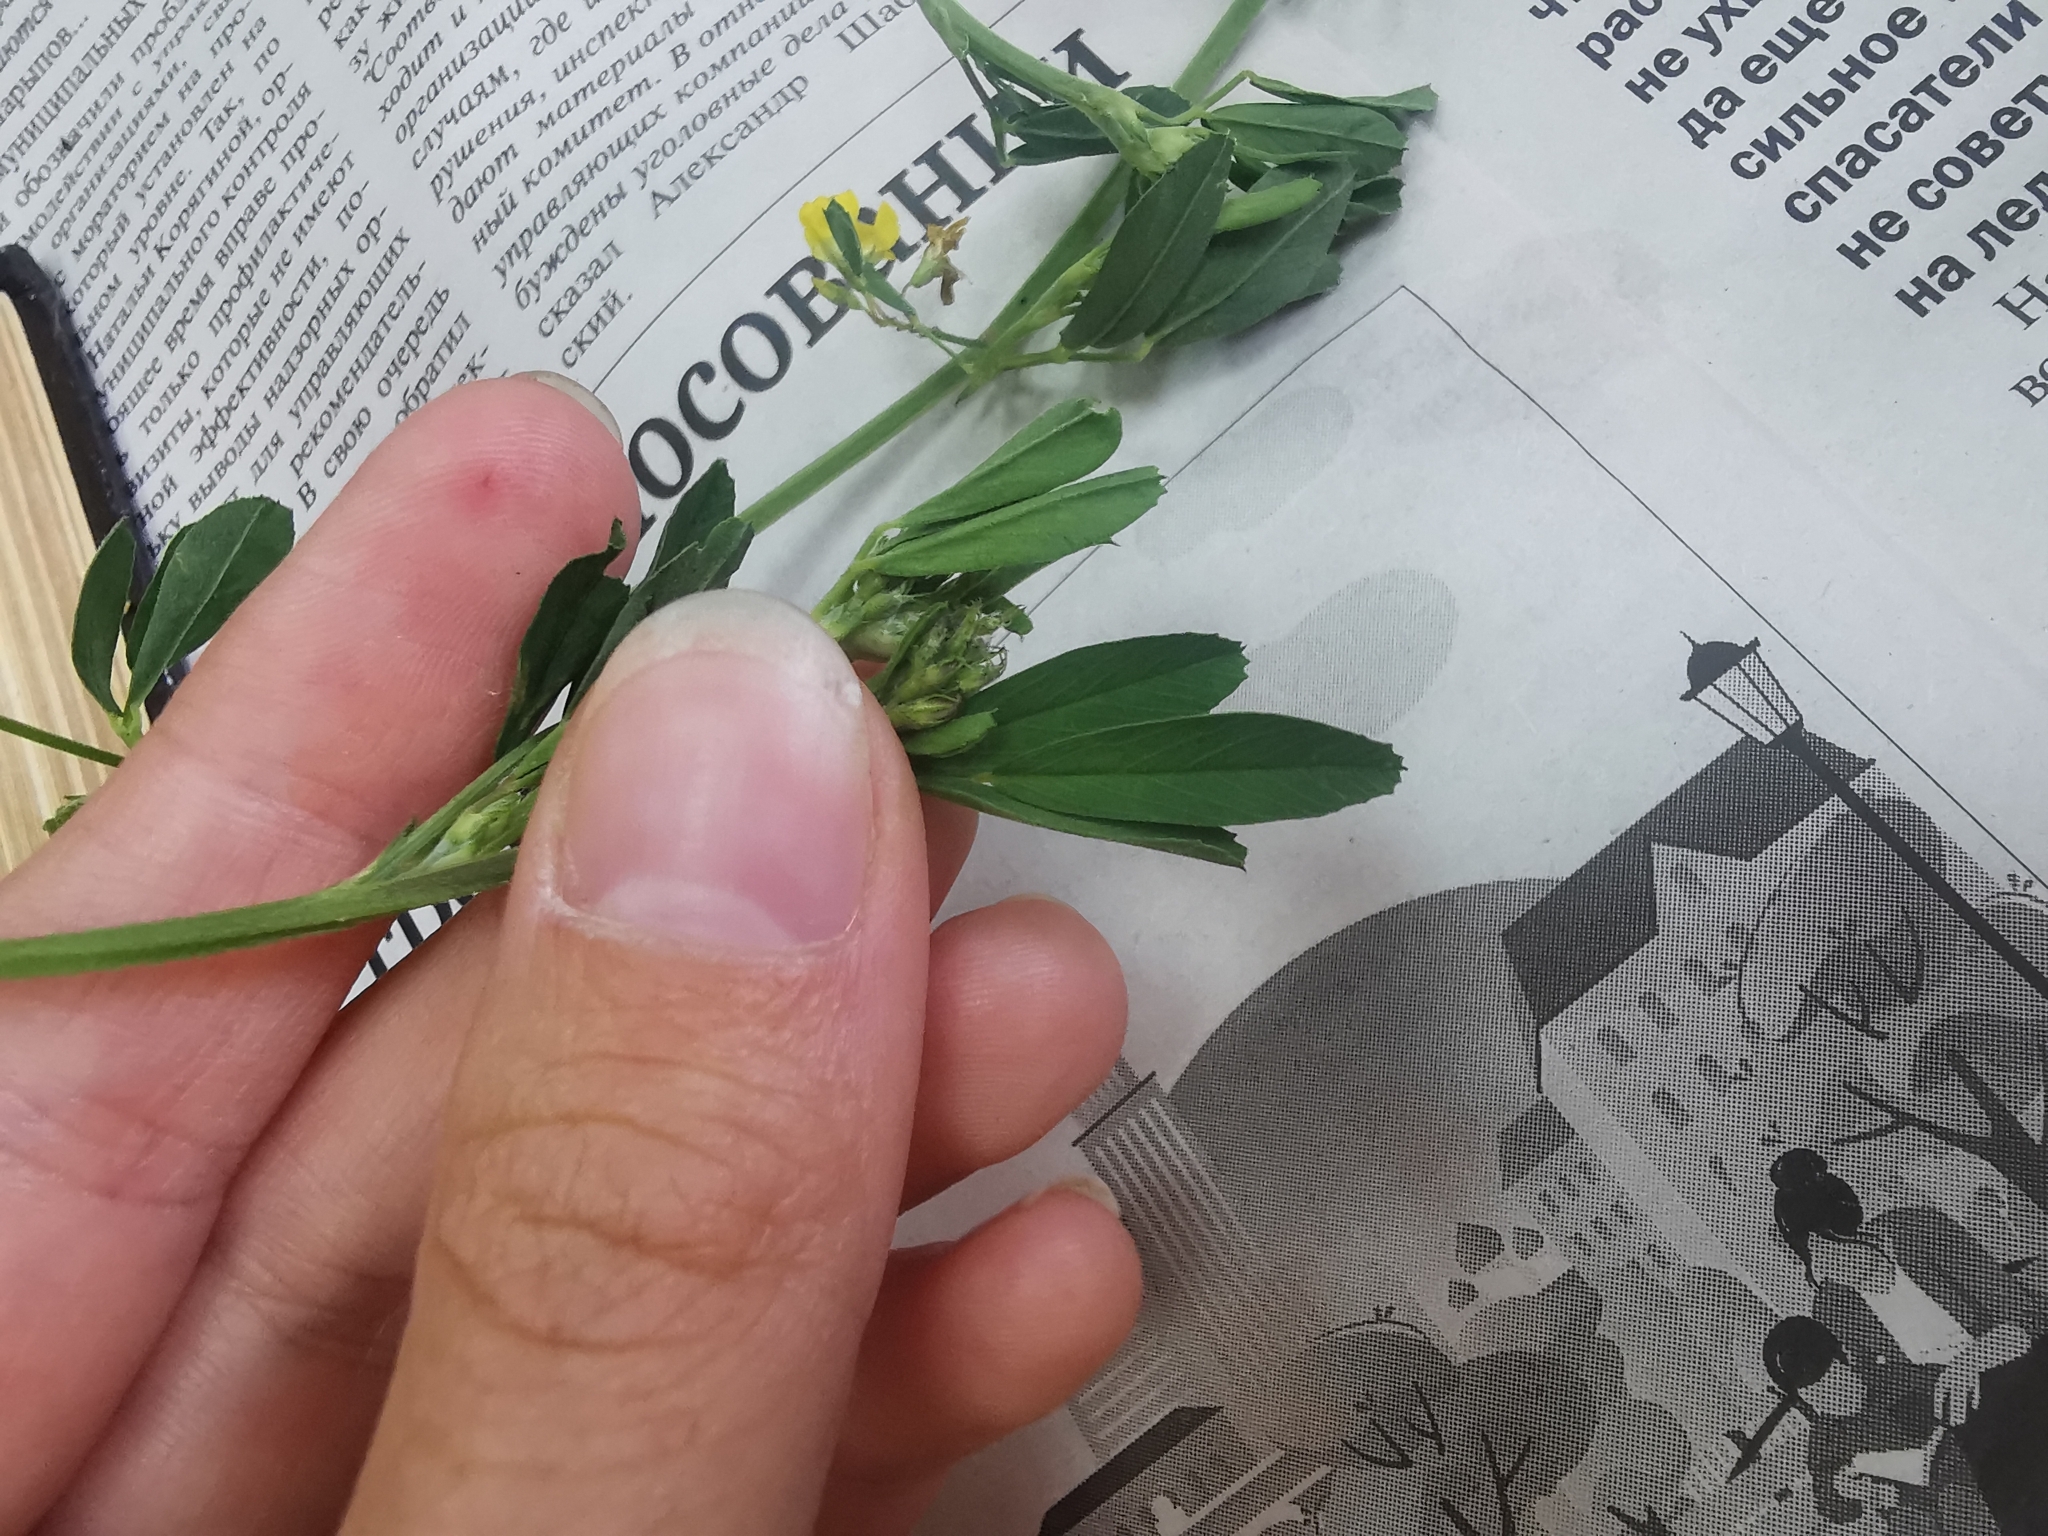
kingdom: Plantae
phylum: Tracheophyta
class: Magnoliopsida
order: Fabales
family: Fabaceae
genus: Medicago
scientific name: Medicago falcata
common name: Sickle medick
